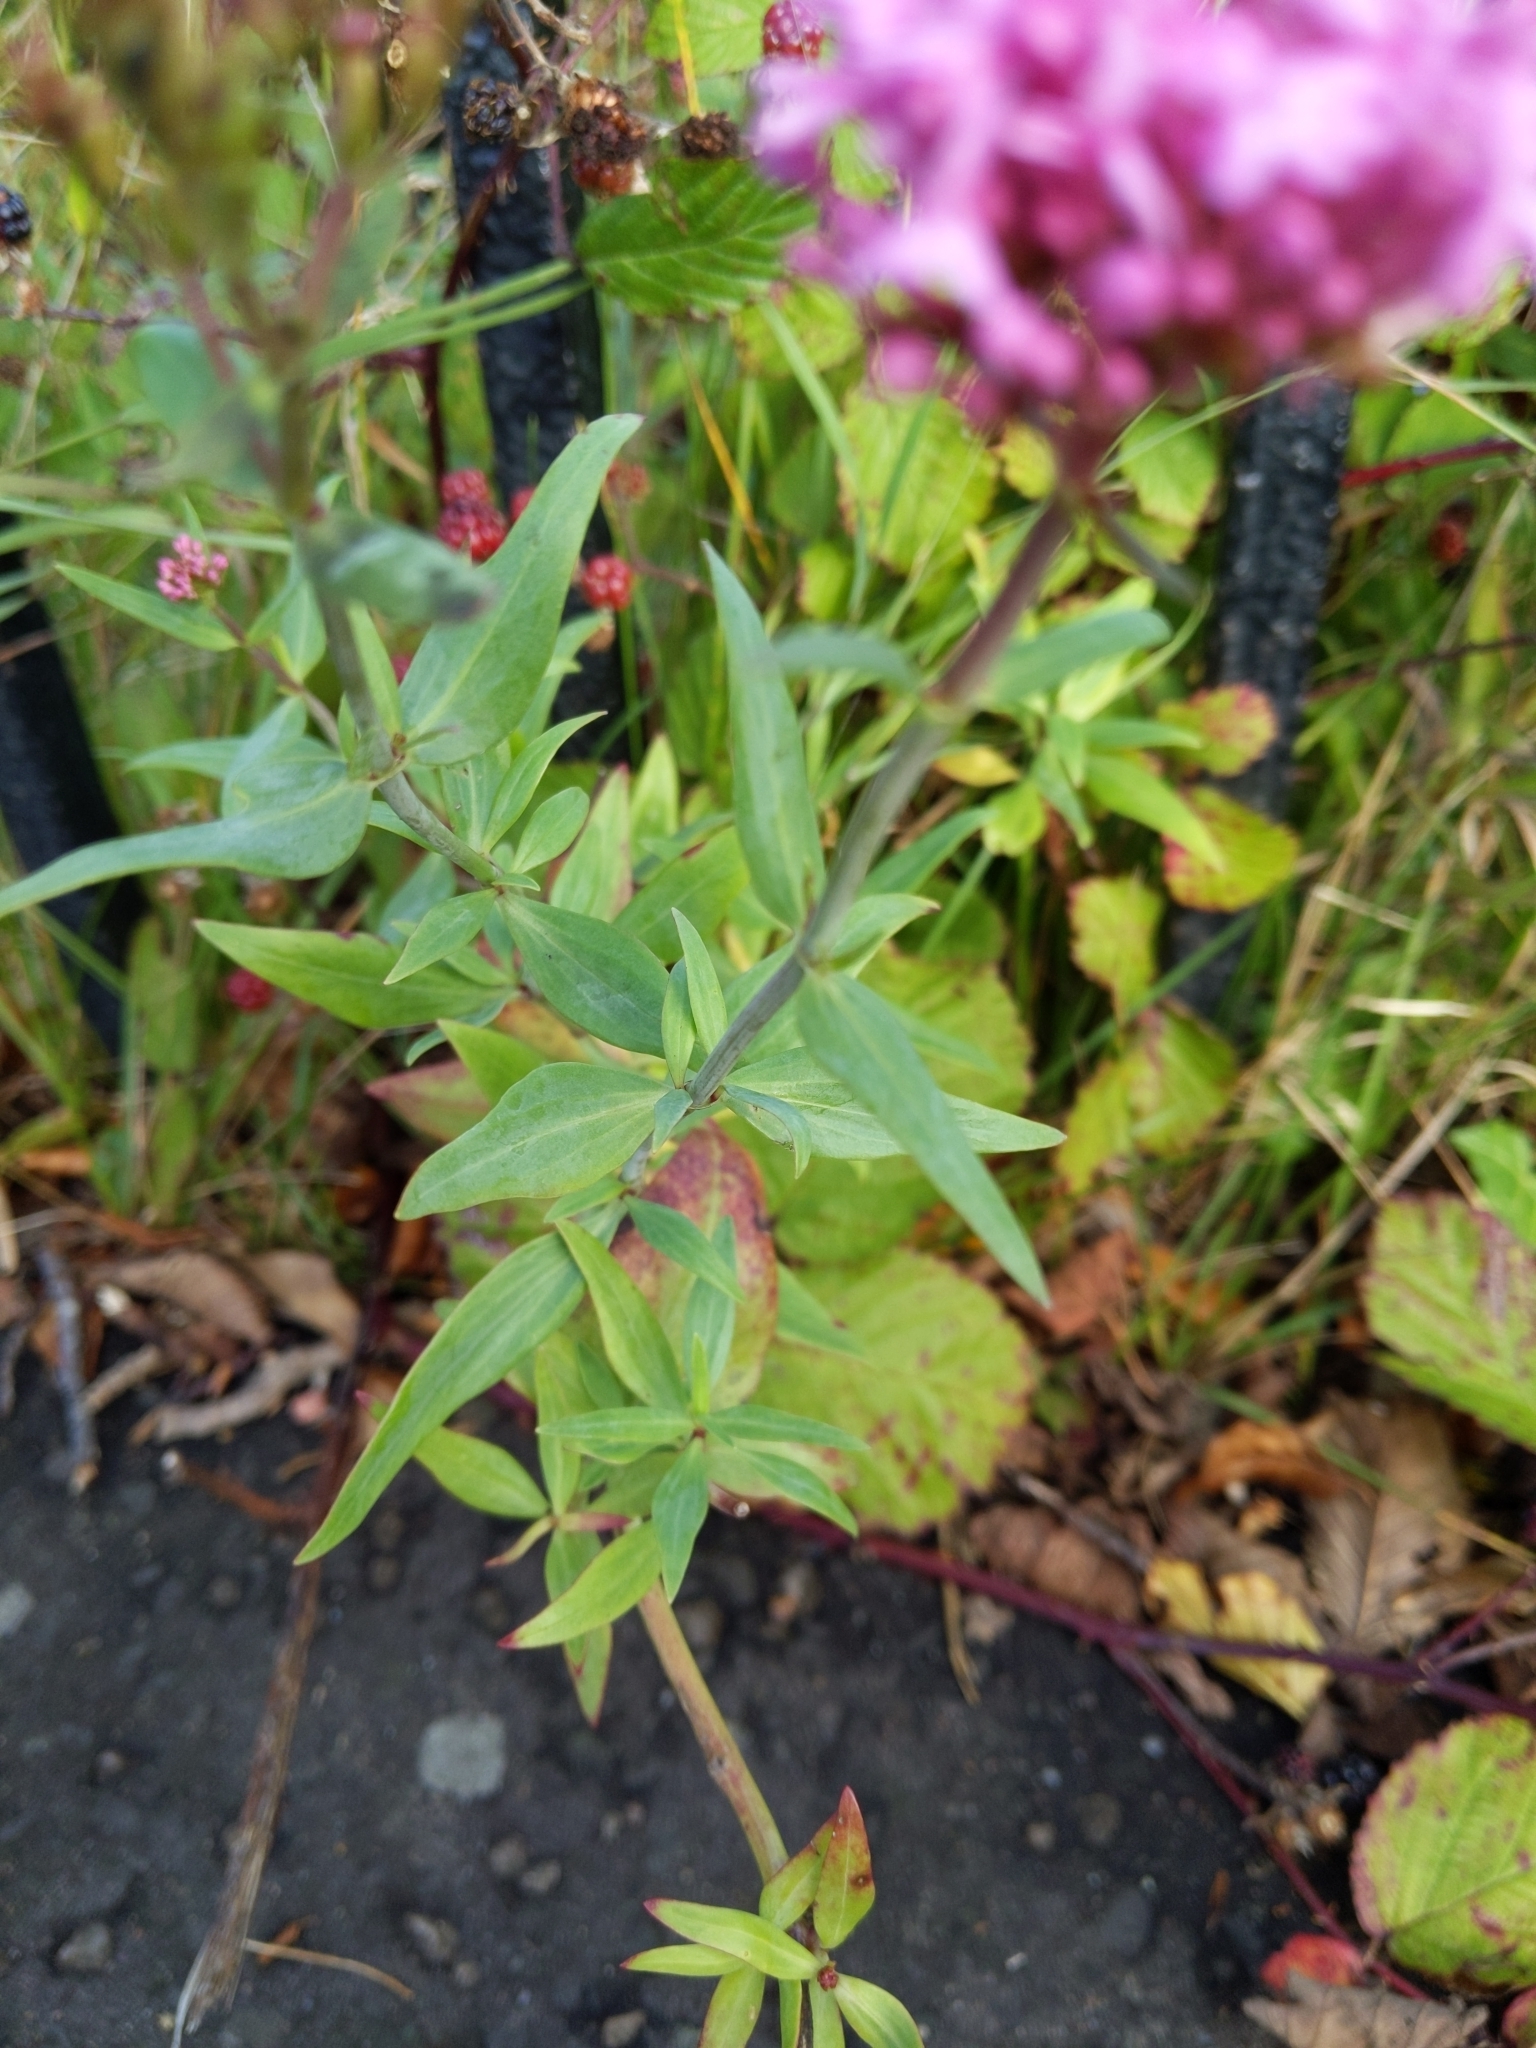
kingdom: Plantae
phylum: Tracheophyta
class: Magnoliopsida
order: Dipsacales
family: Caprifoliaceae
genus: Centranthus
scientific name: Centranthus ruber
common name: Red valerian
